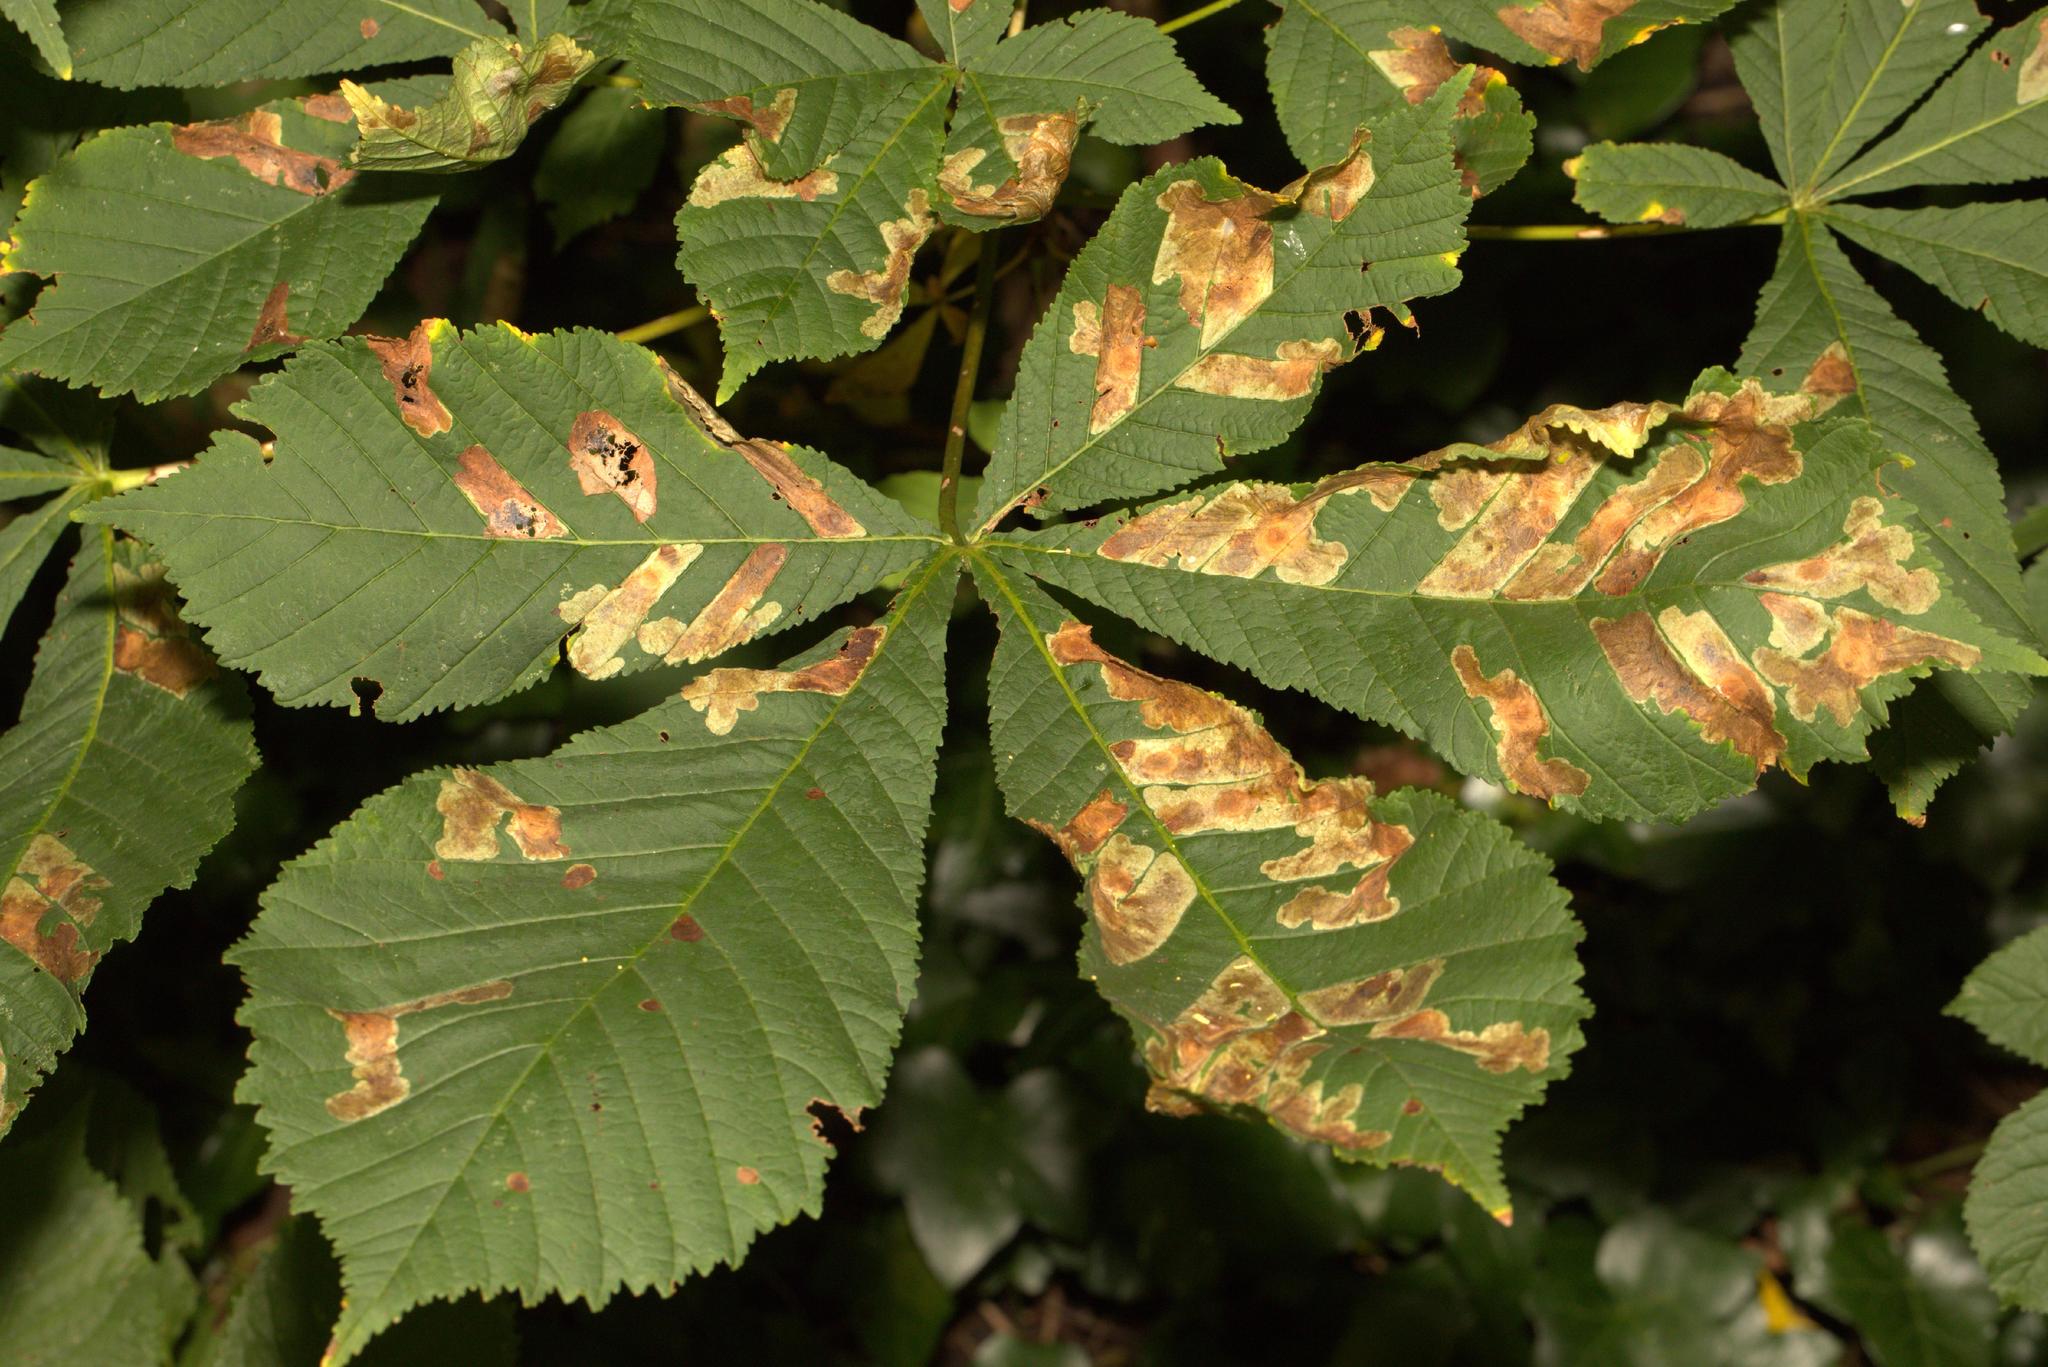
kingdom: Animalia
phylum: Arthropoda
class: Insecta
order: Lepidoptera
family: Gracillariidae
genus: Cameraria
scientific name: Cameraria ohridella
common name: Horse-chestnut leaf-miner
